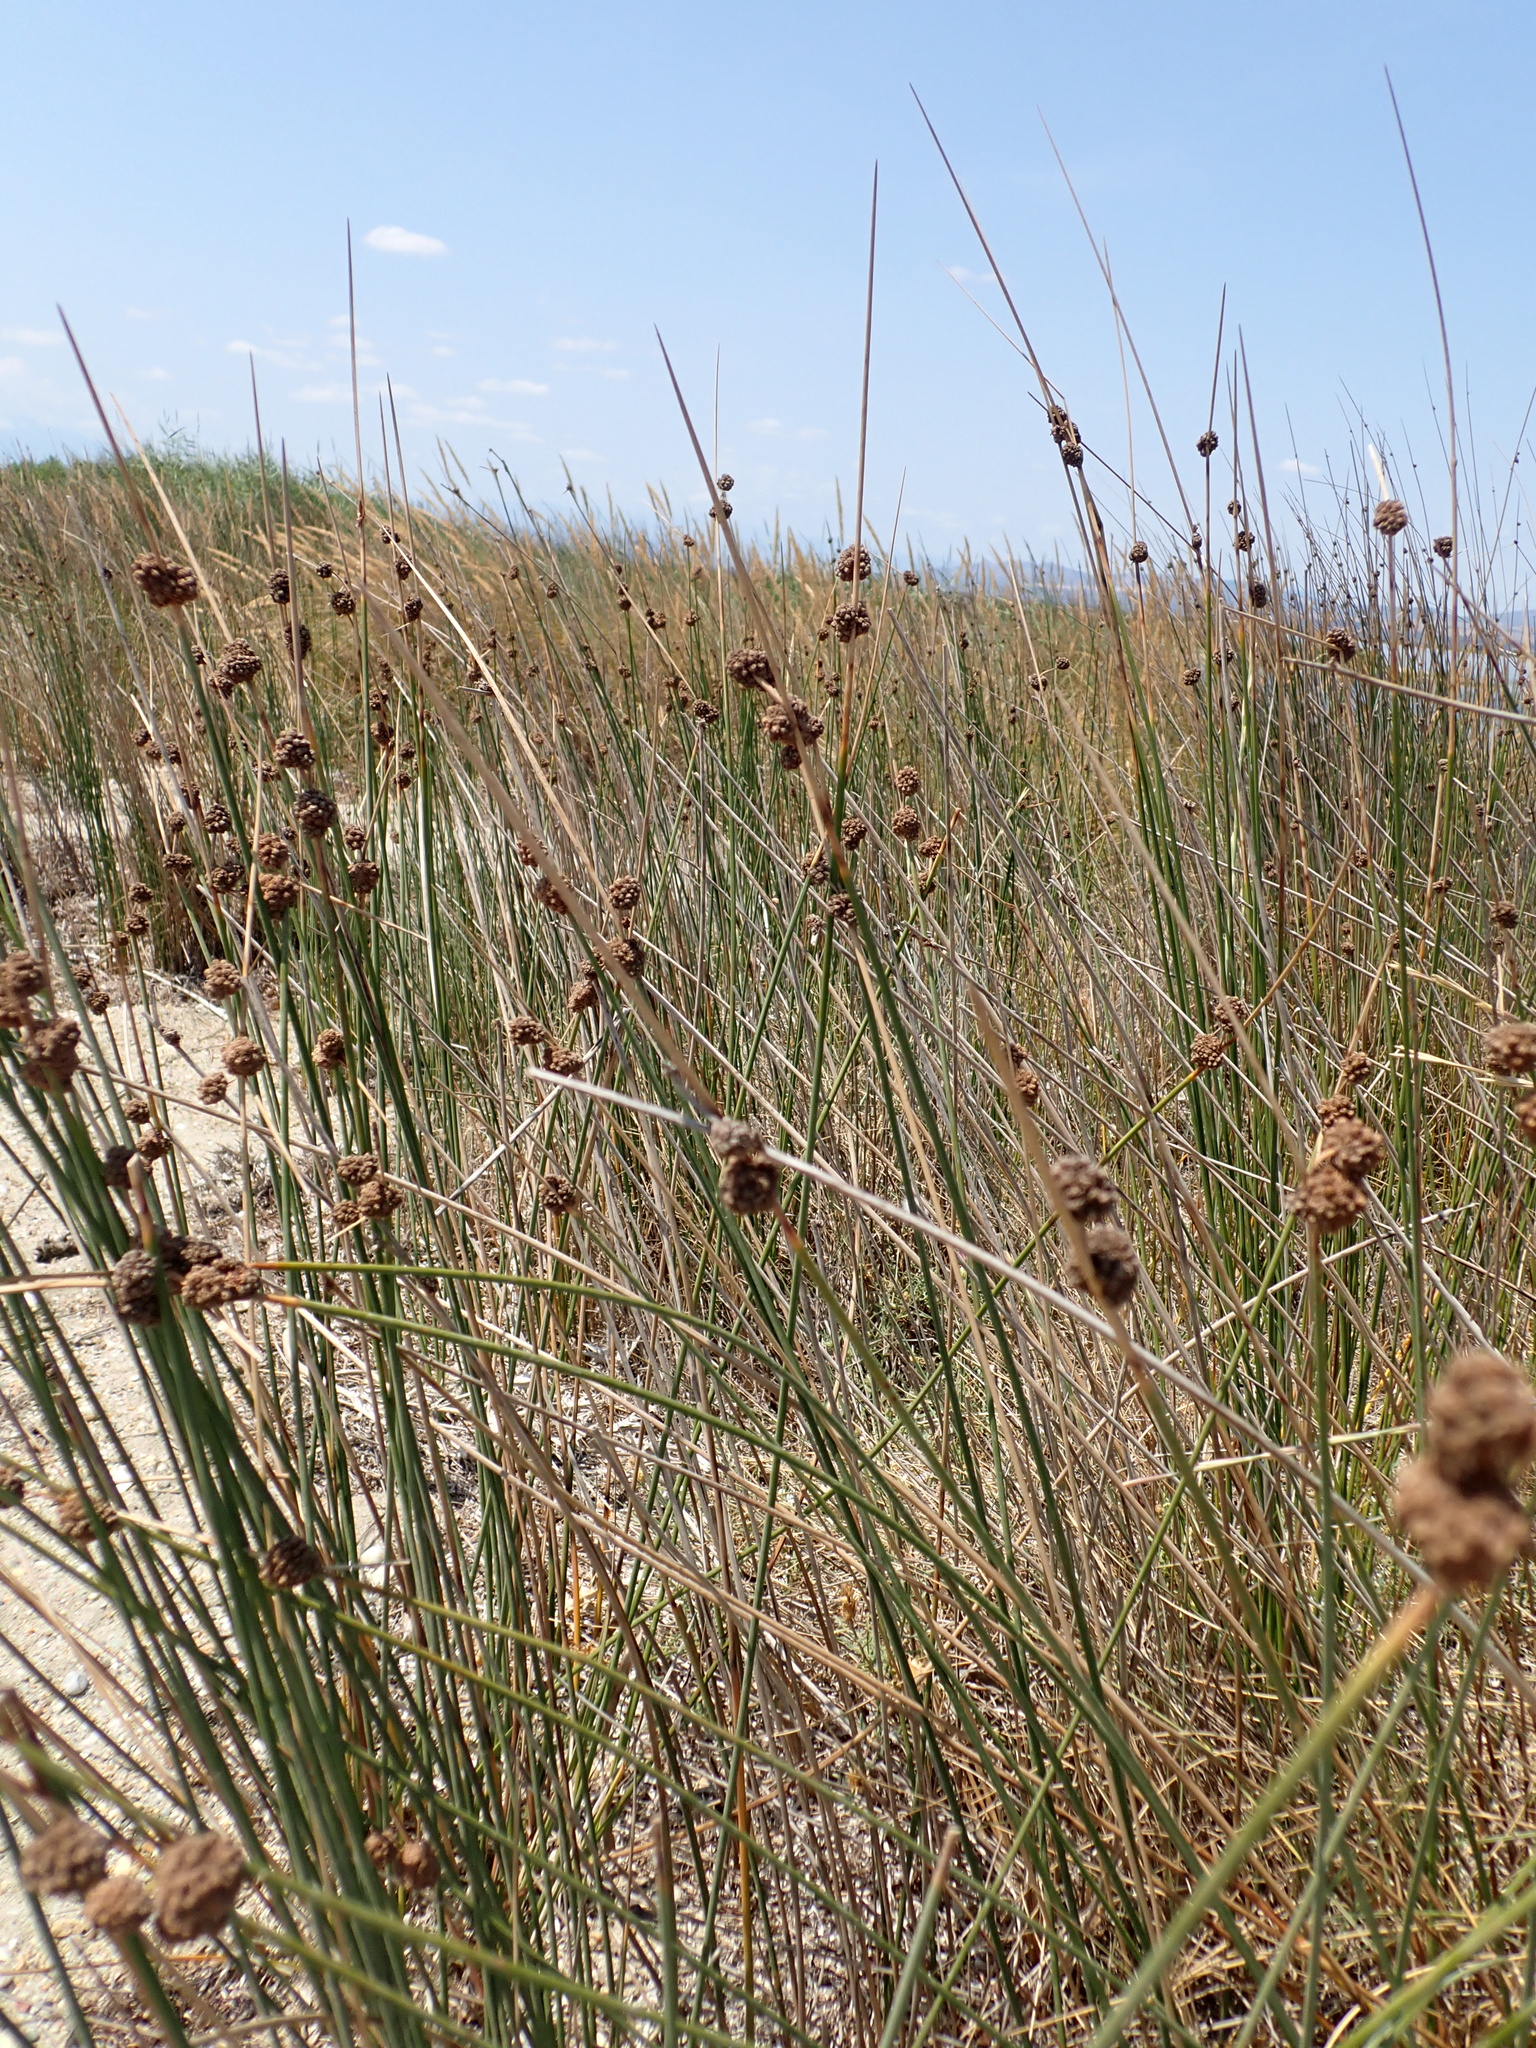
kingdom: Plantae
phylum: Tracheophyta
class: Liliopsida
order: Poales
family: Cyperaceae
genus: Scirpoides
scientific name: Scirpoides holoschoenus
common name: Round-headed club-rush
